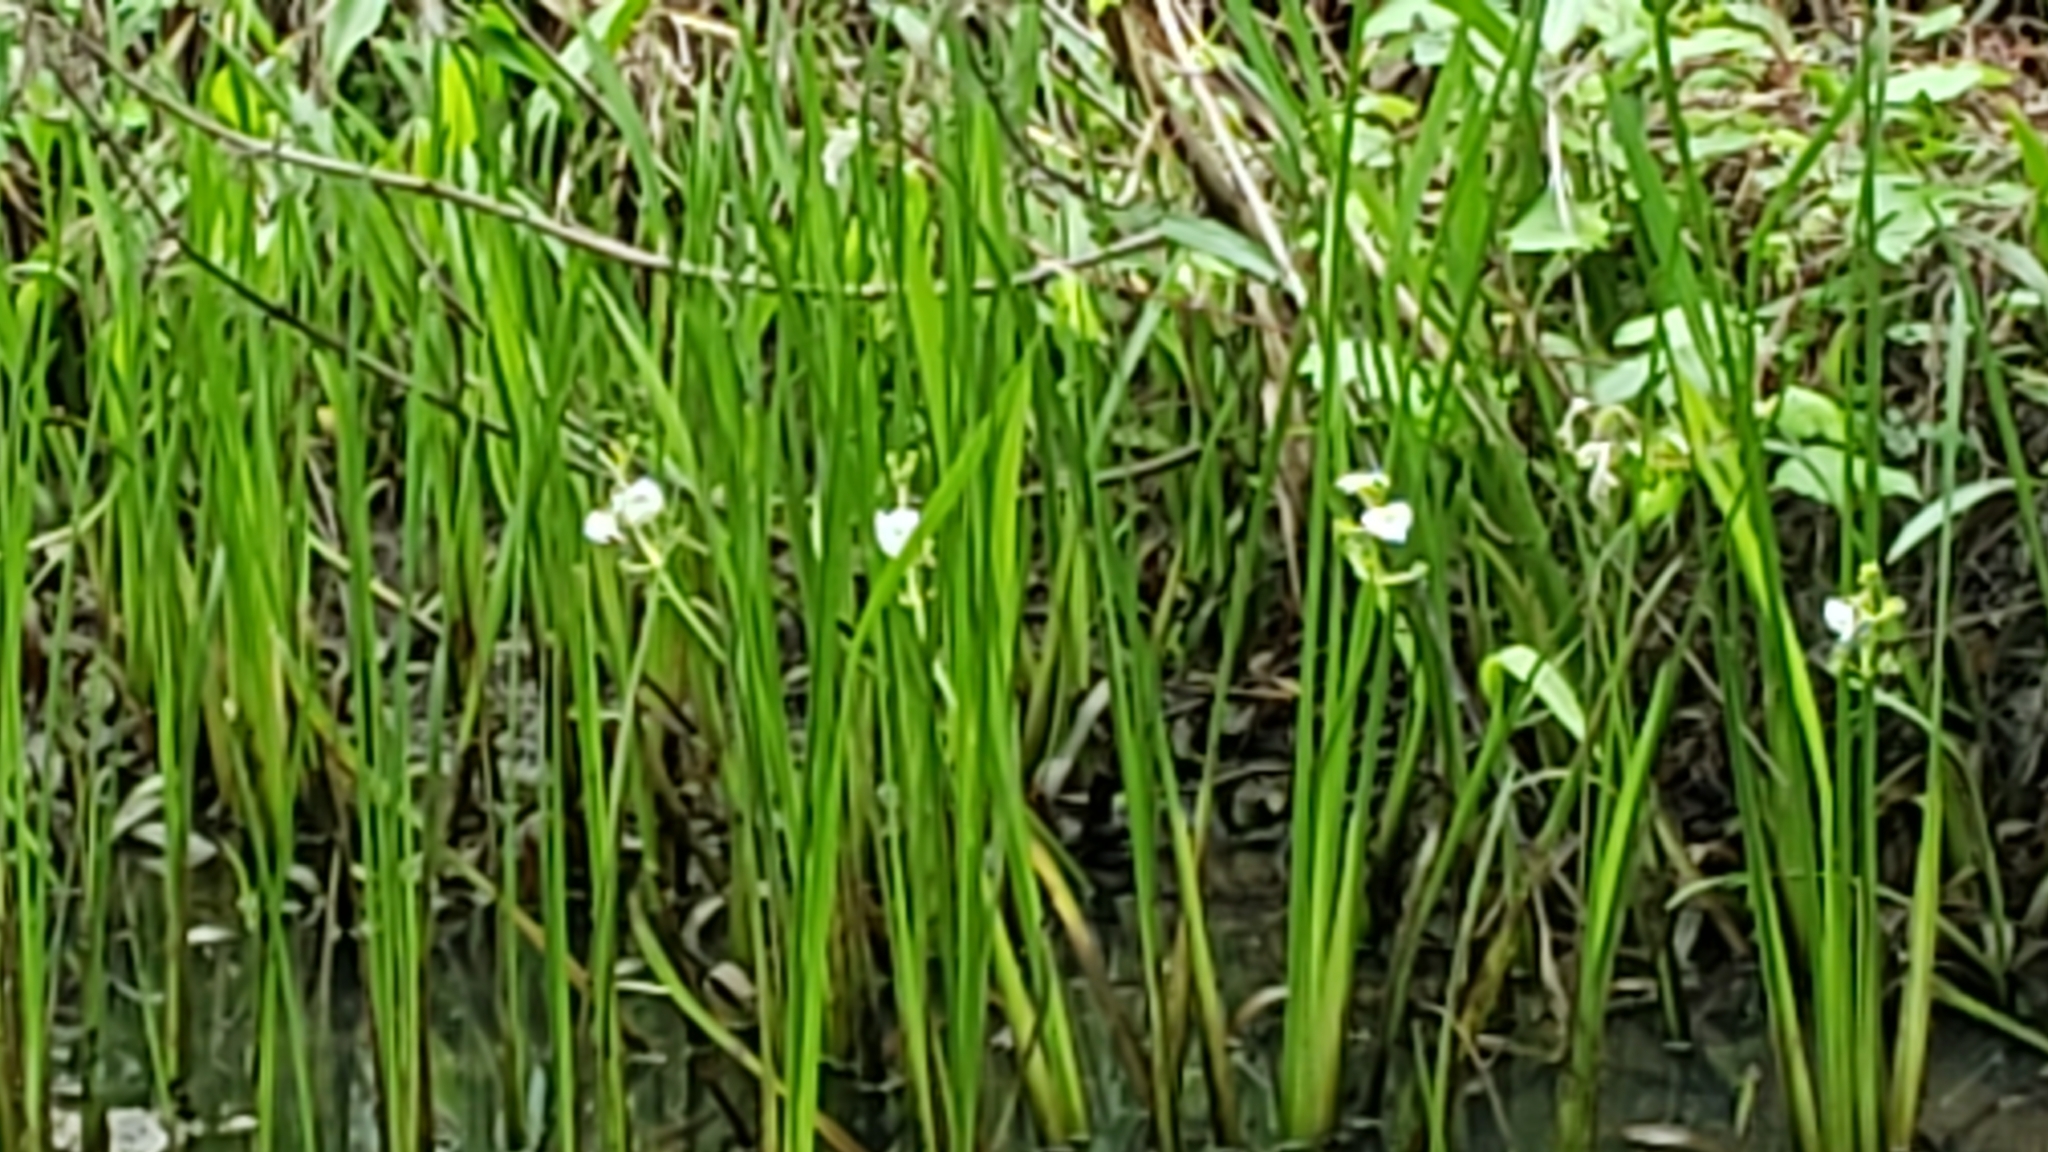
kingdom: Plantae
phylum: Tracheophyta
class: Liliopsida
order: Alismatales
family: Alismataceae
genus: Sagittaria
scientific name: Sagittaria platyphylla
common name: Broad-leaf arrowhead
